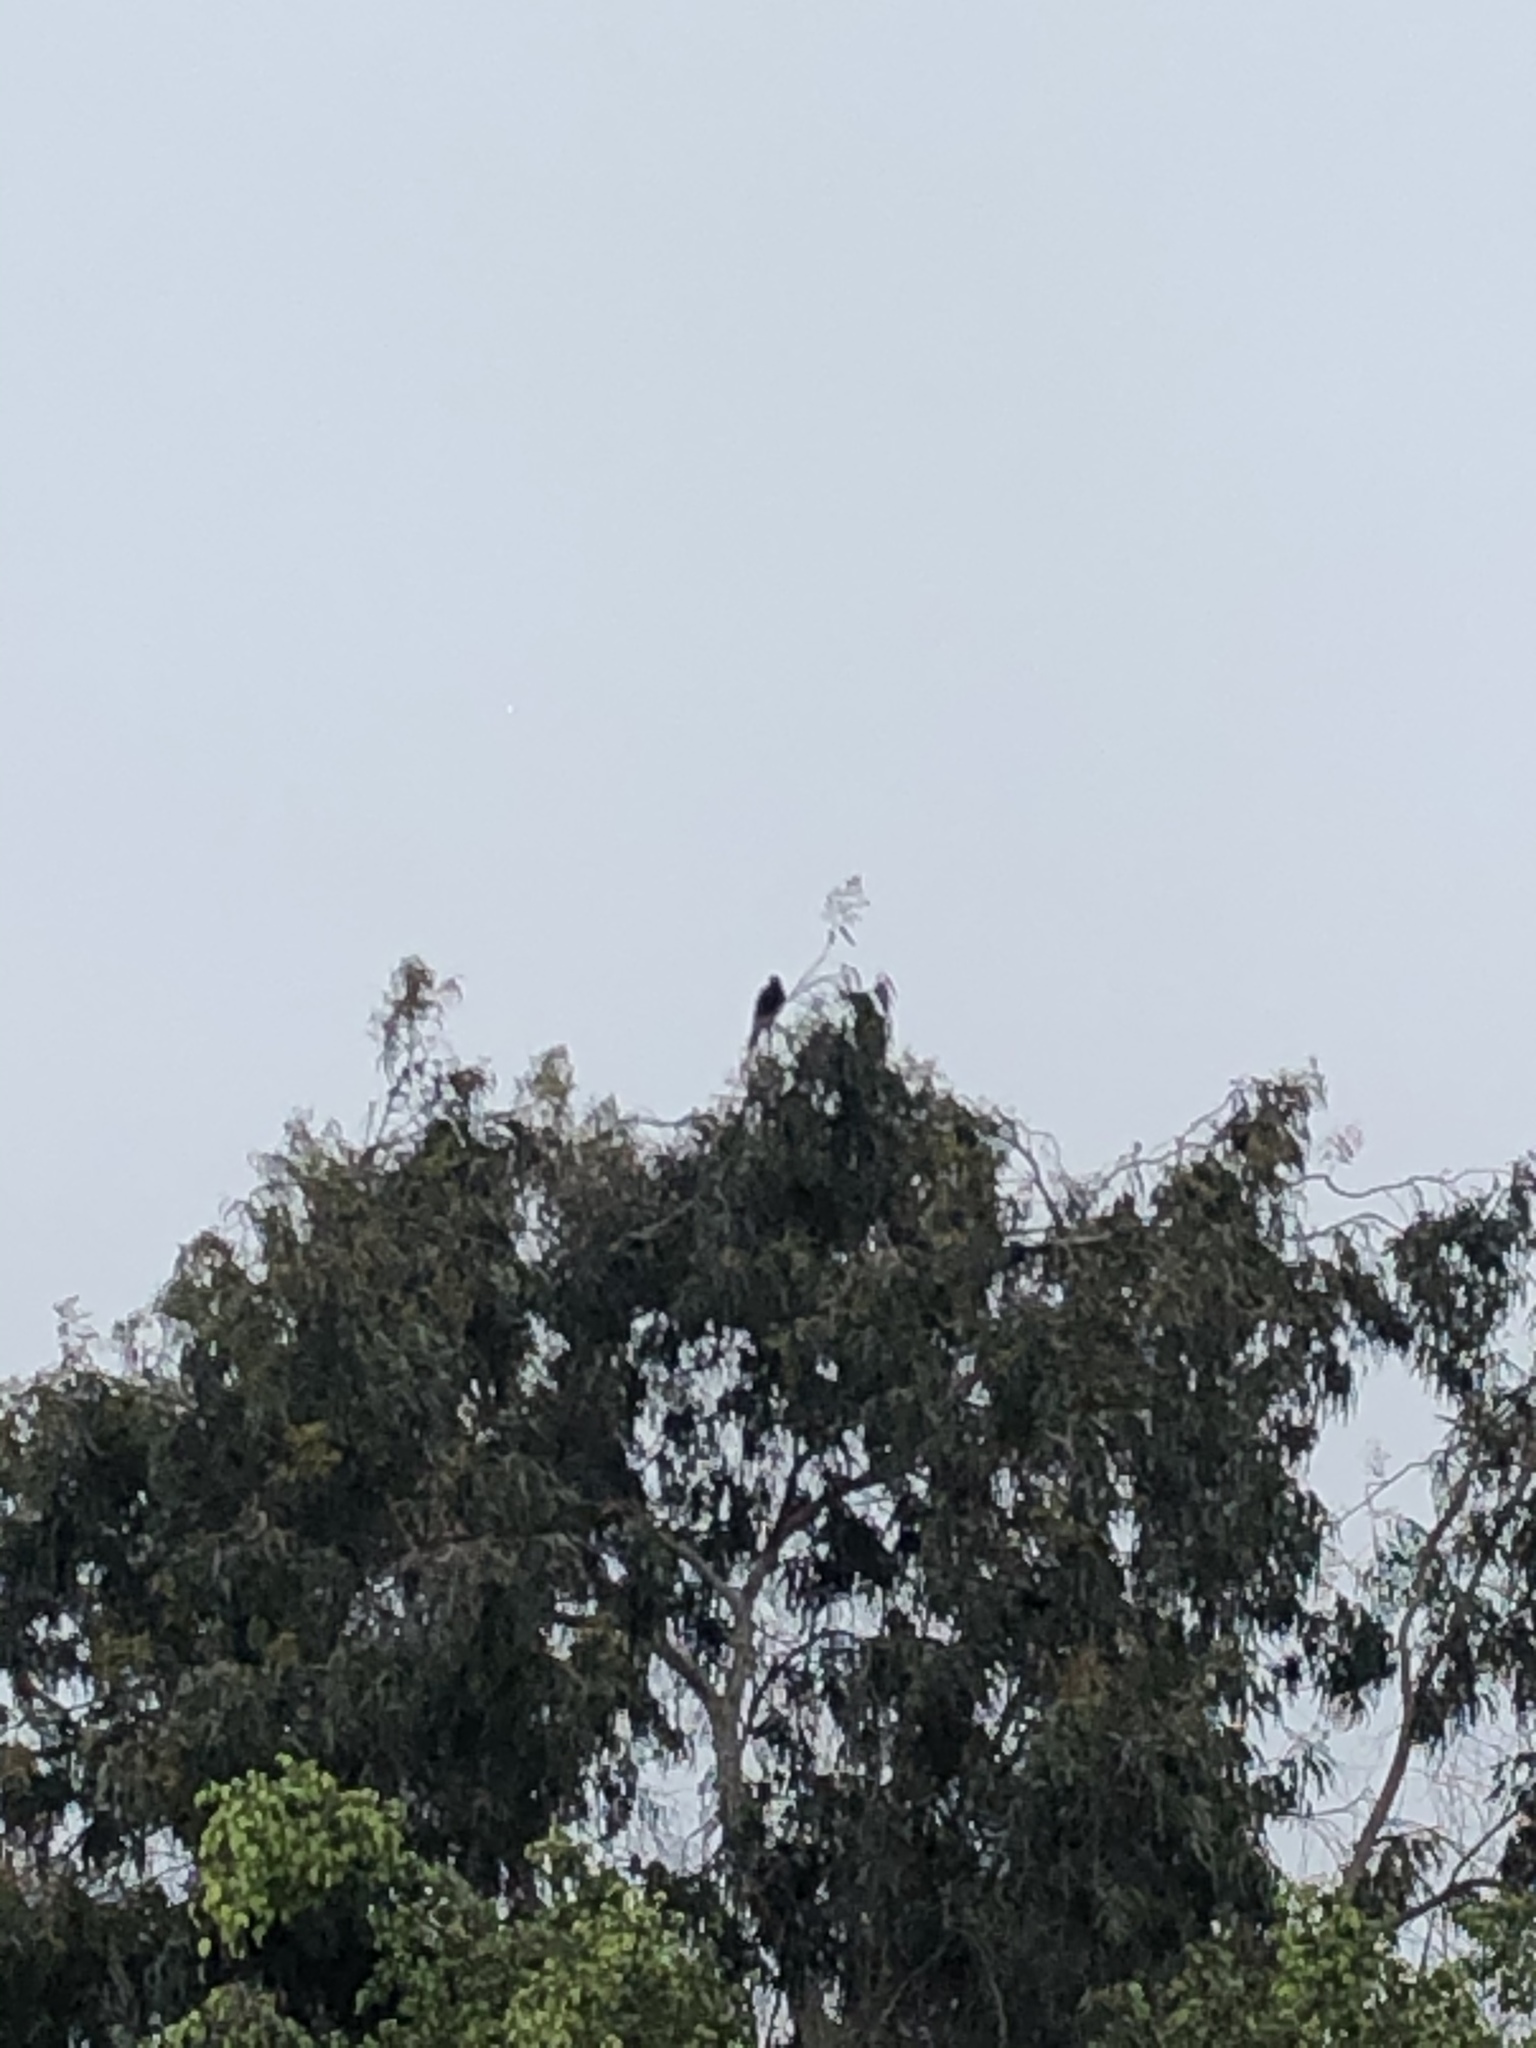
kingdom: Animalia
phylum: Chordata
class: Aves
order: Accipitriformes
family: Accipitridae
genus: Parabuteo
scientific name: Parabuteo unicinctus
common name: Harris's hawk
